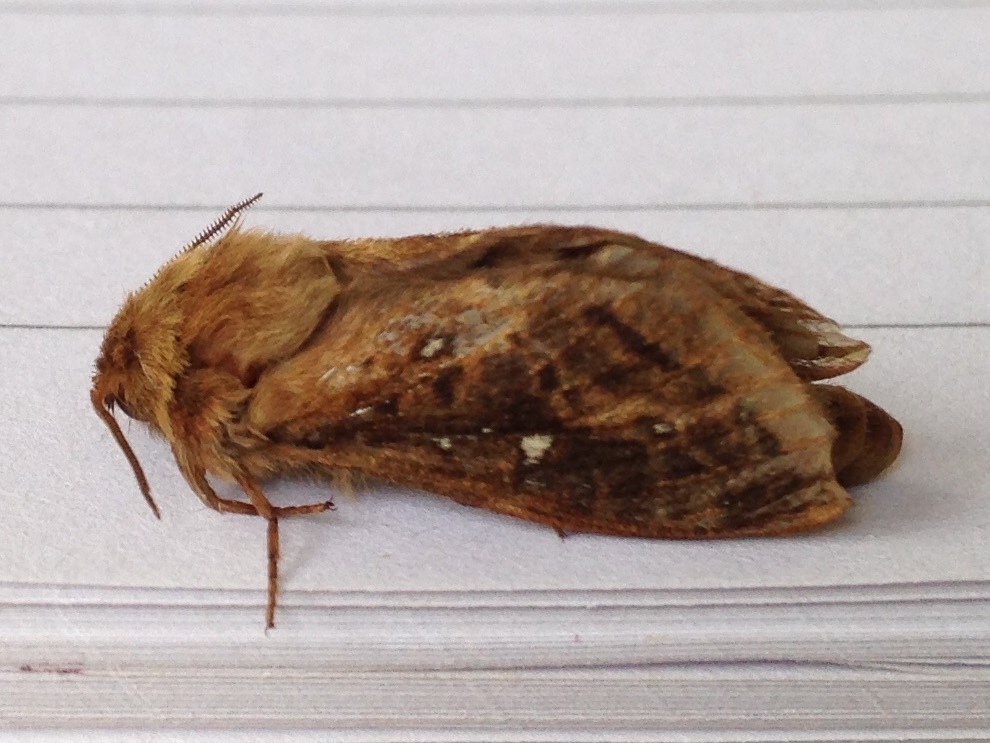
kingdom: Animalia
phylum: Arthropoda
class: Insecta
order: Lepidoptera
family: Hepialidae
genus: Wiseana
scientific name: Wiseana cervinata
